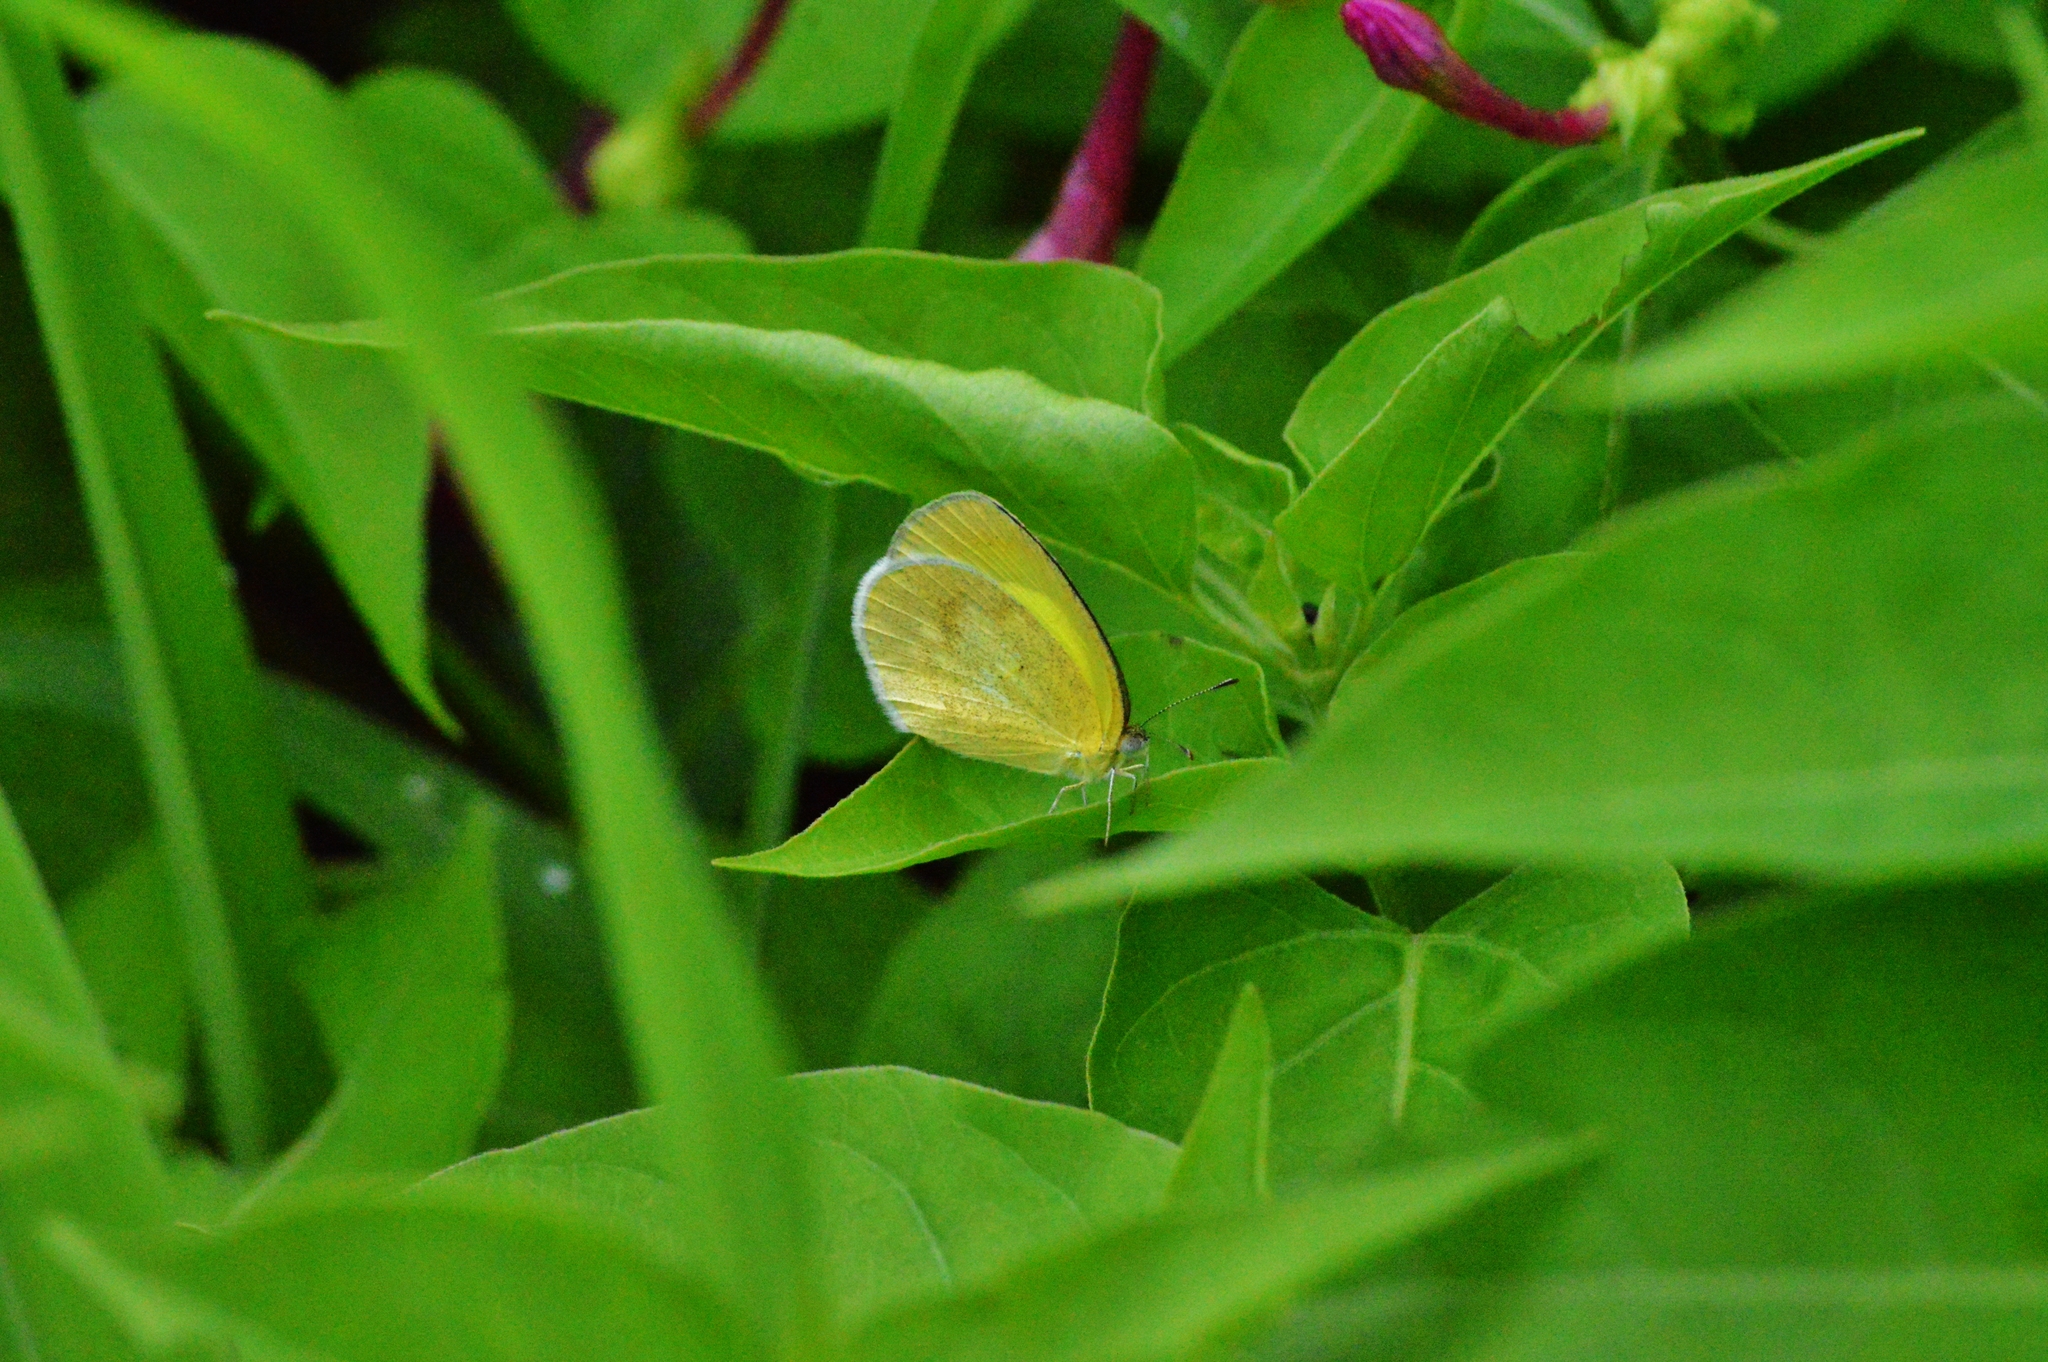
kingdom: Animalia
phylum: Arthropoda
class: Insecta
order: Lepidoptera
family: Pieridae
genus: Eurema
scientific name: Eurema elathea
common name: Banded yellow
